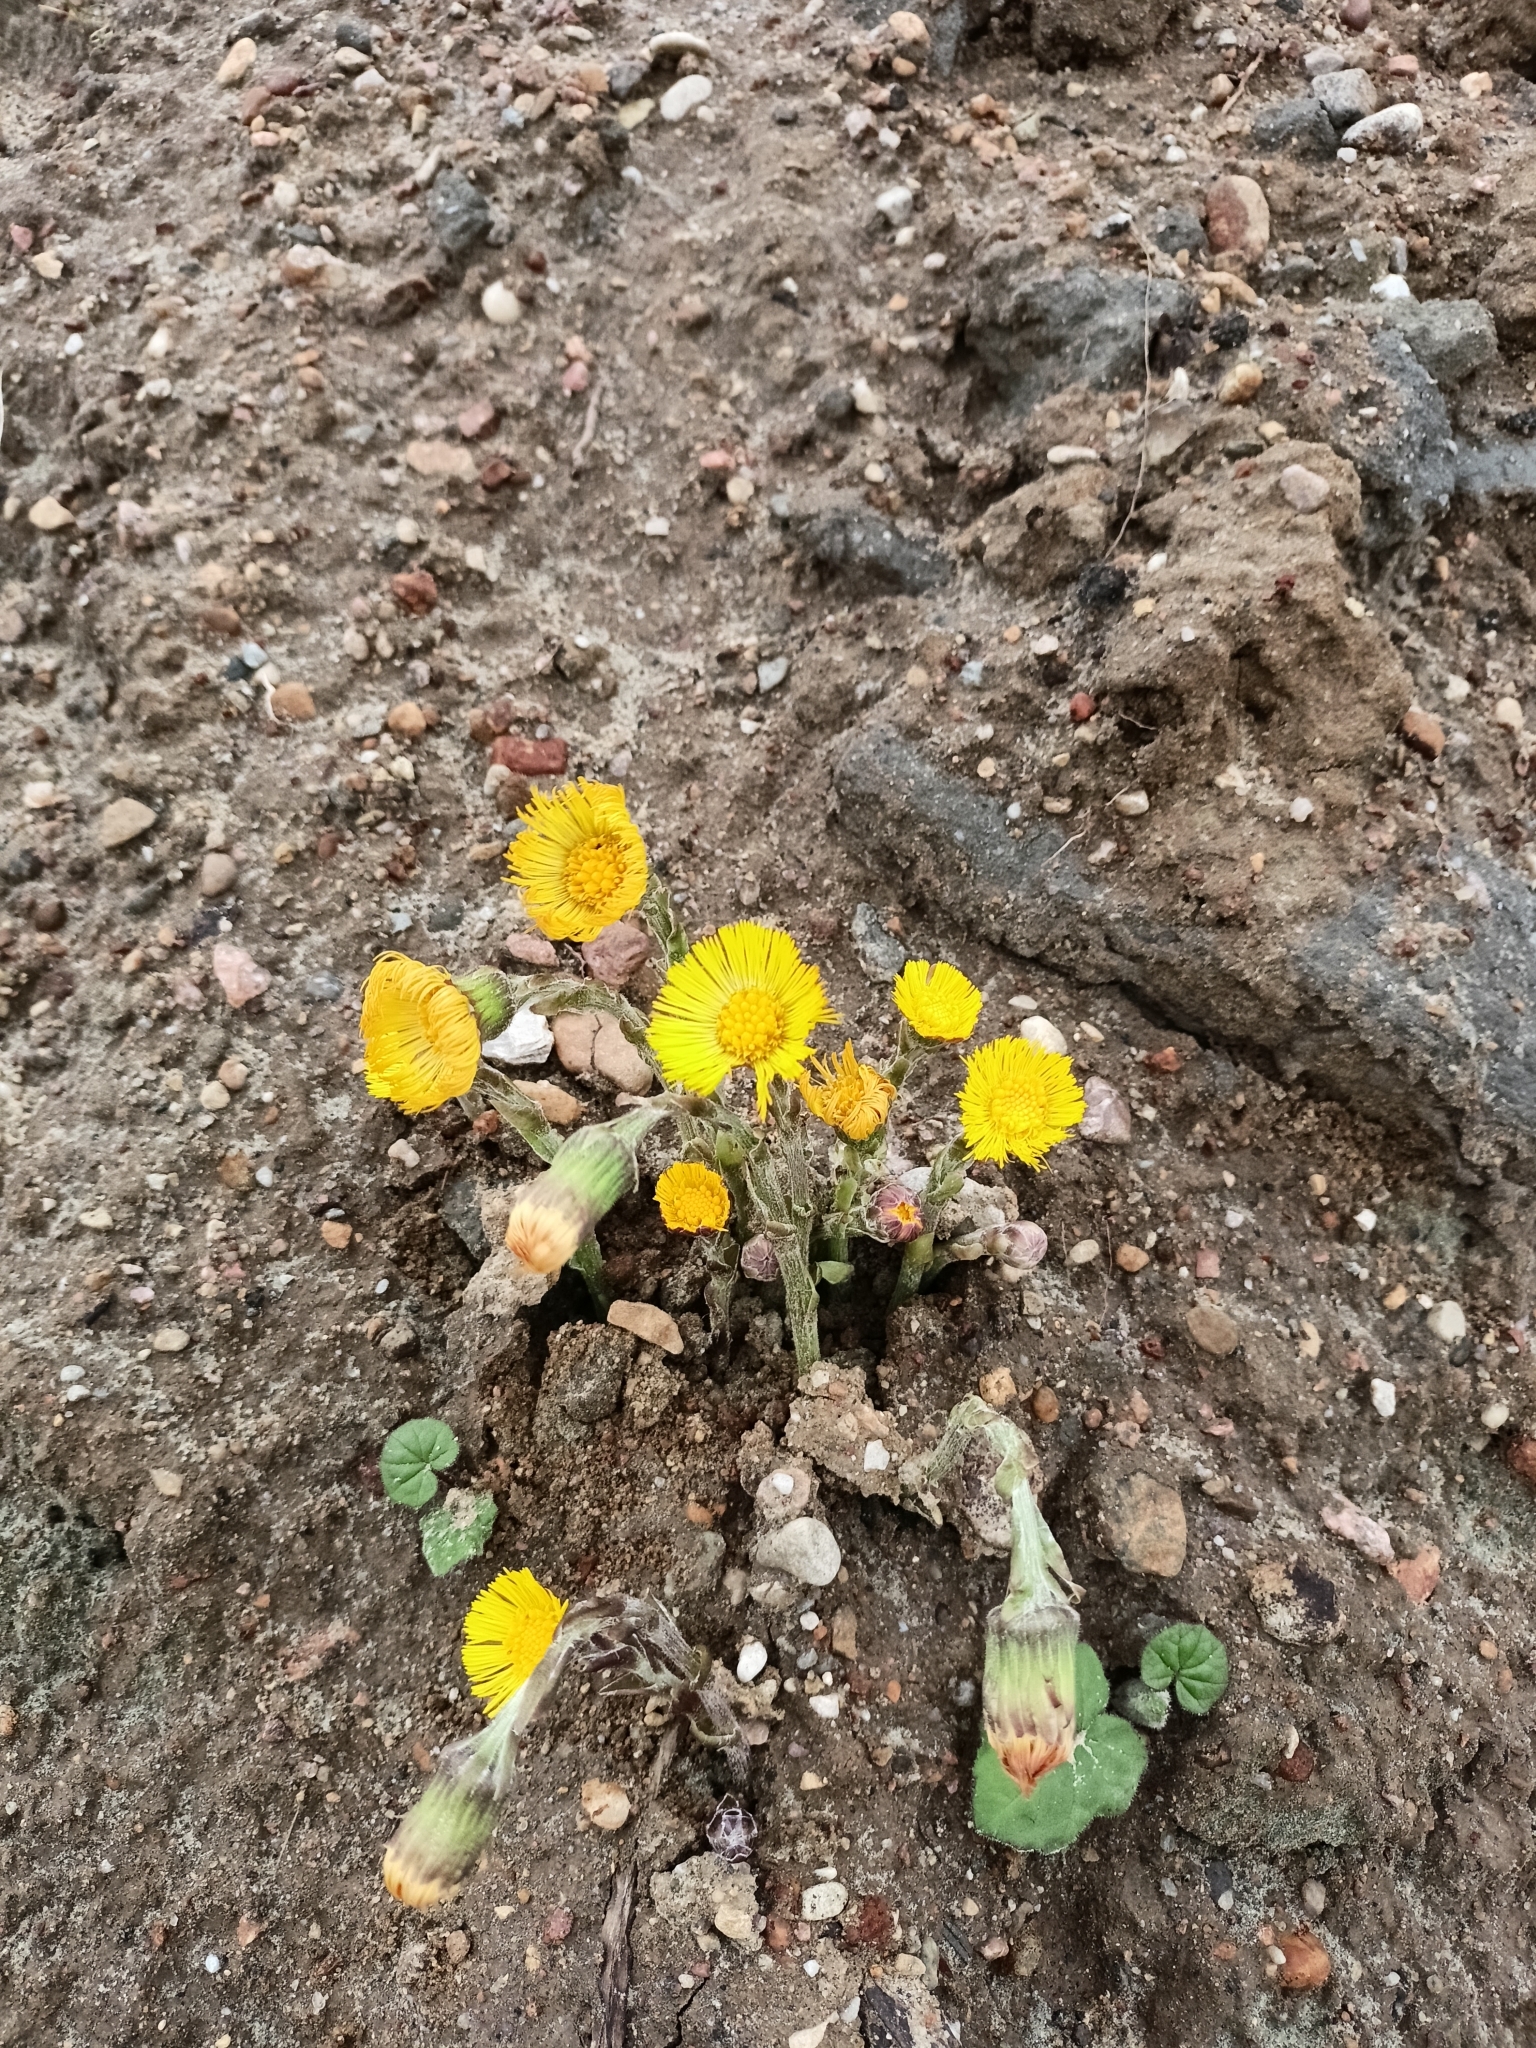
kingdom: Plantae
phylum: Tracheophyta
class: Magnoliopsida
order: Asterales
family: Asteraceae
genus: Tussilago
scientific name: Tussilago farfara
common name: Coltsfoot
